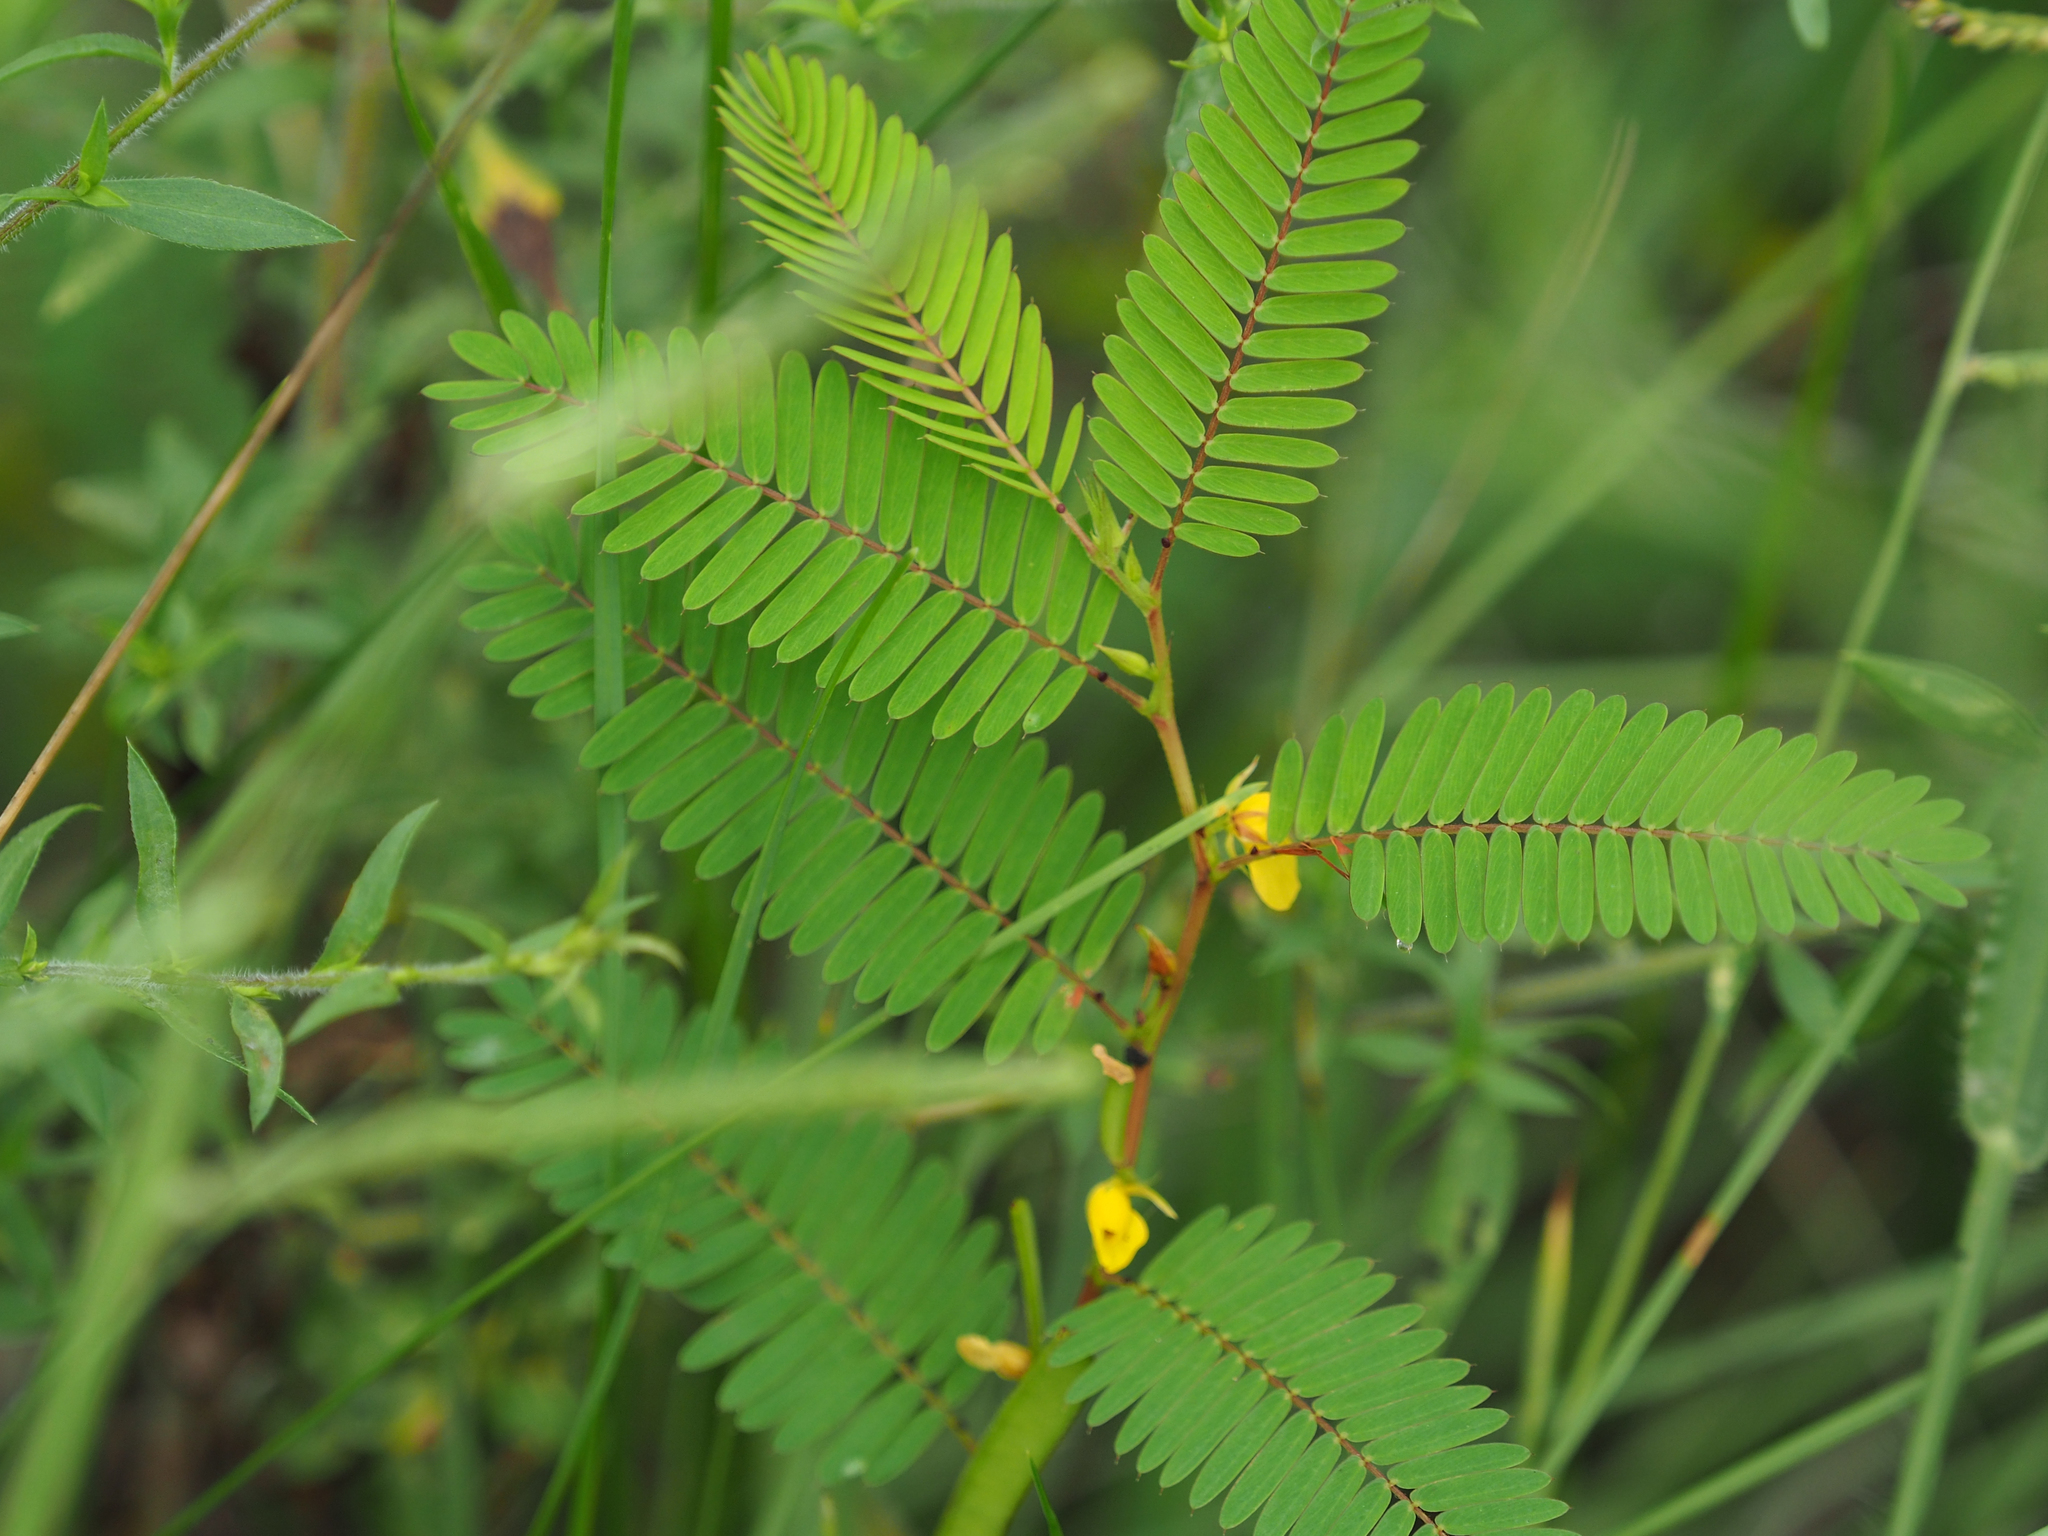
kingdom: Plantae
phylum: Tracheophyta
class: Magnoliopsida
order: Fabales
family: Fabaceae
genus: Chamaecrista
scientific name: Chamaecrista nictitans
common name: Sensitive cassia
